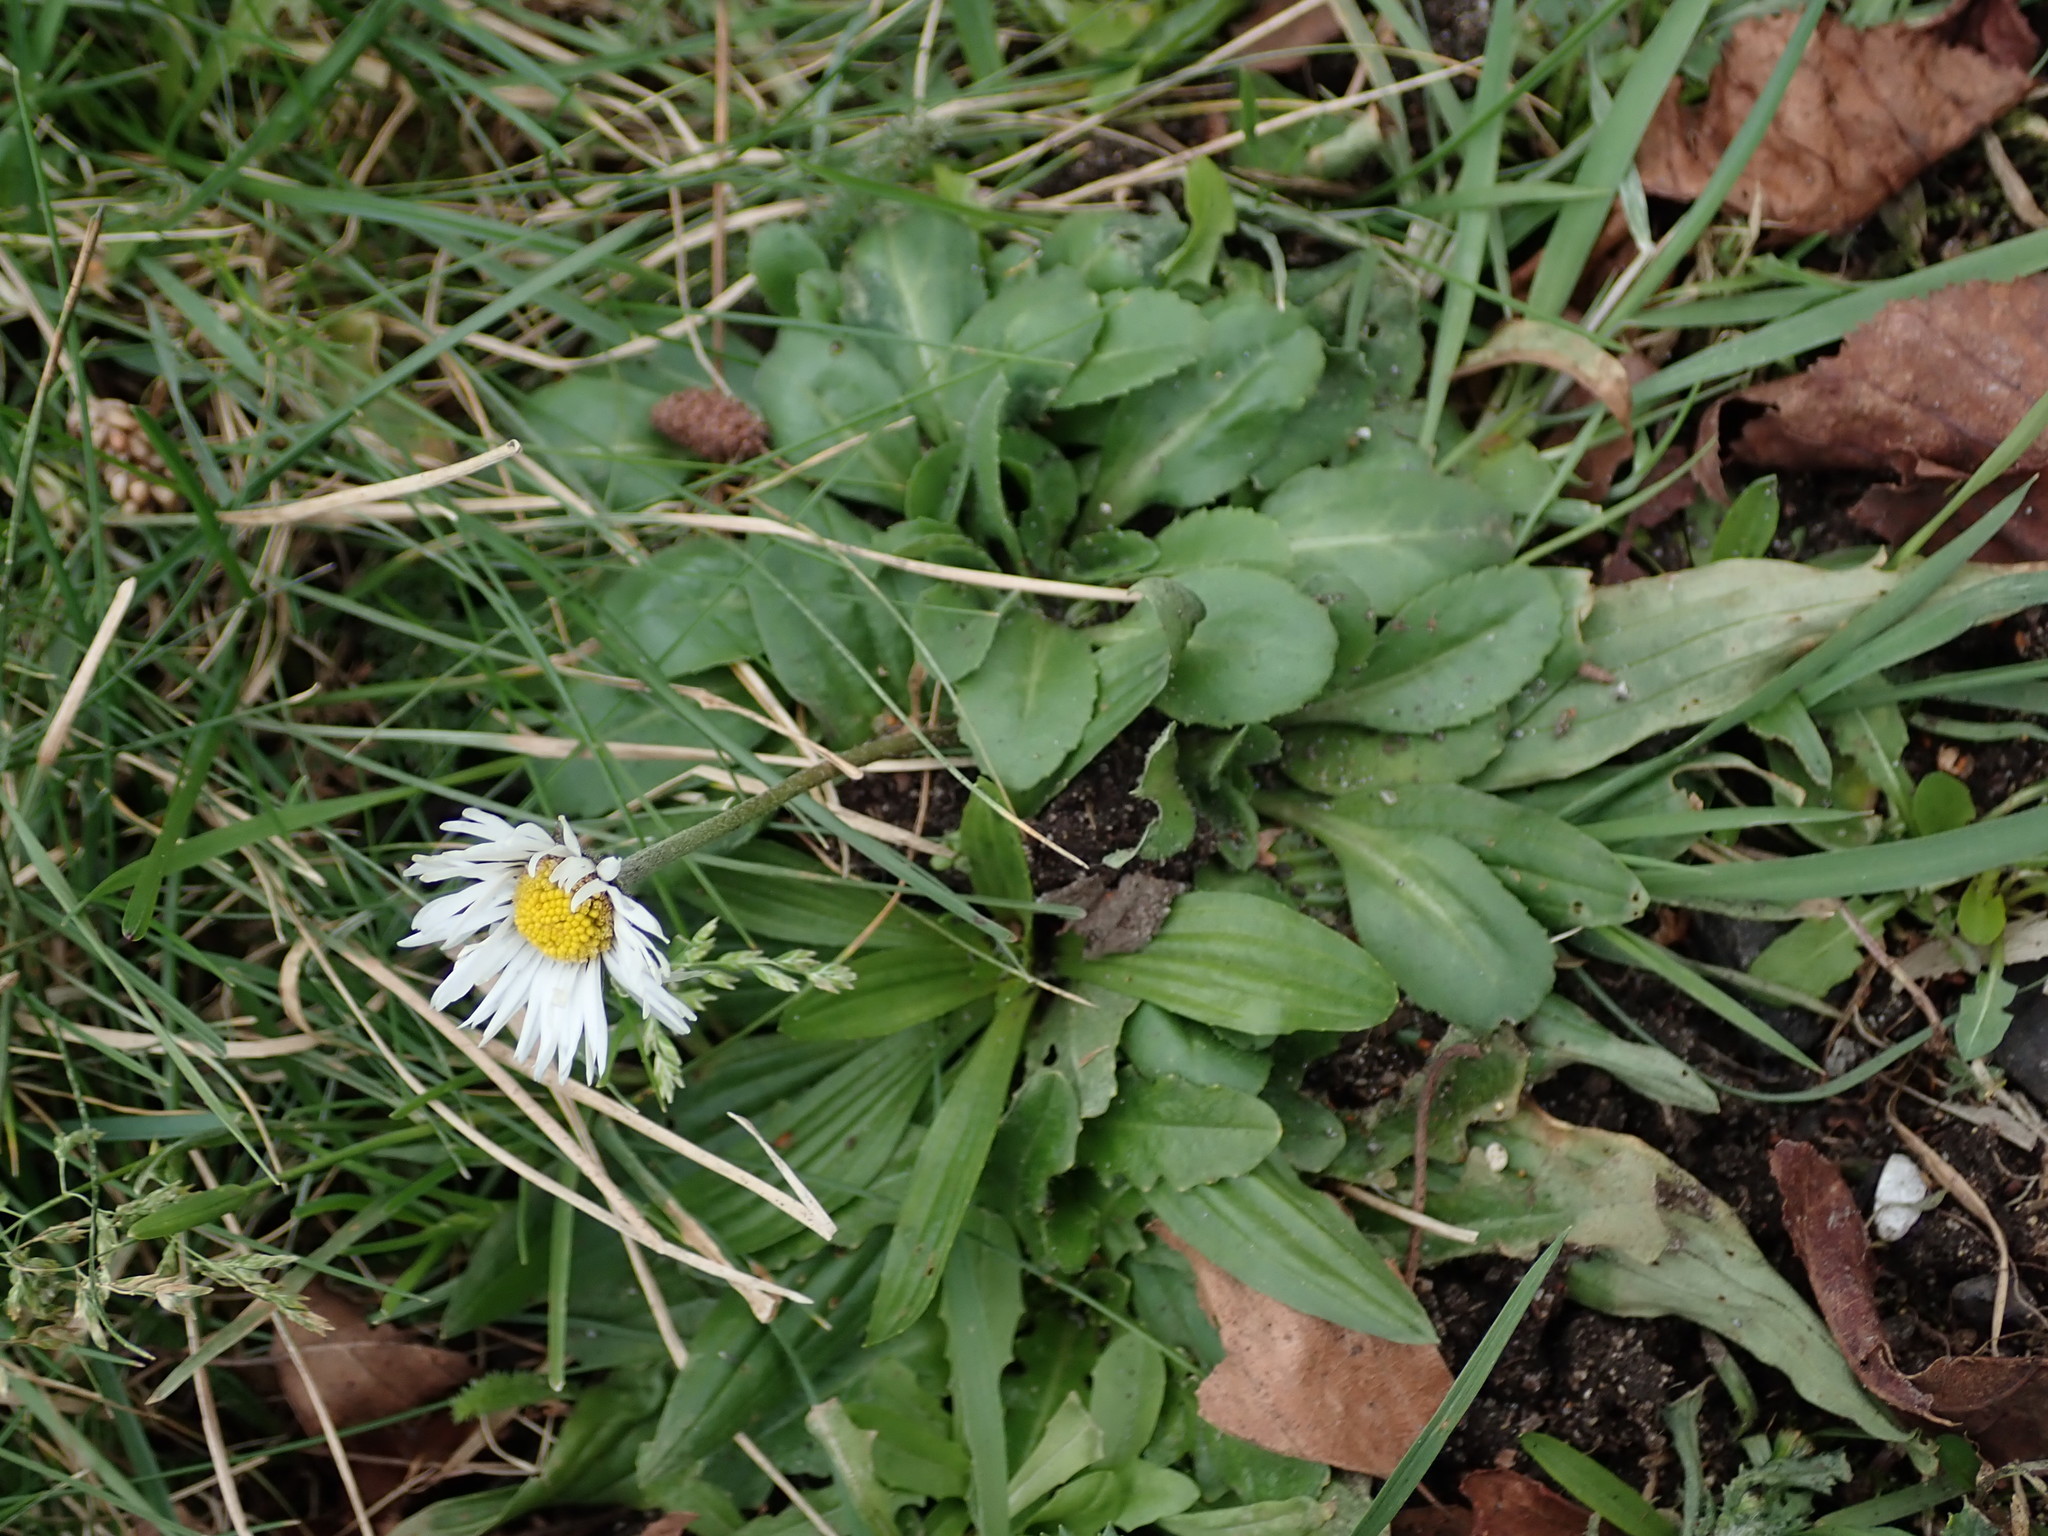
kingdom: Plantae
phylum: Tracheophyta
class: Magnoliopsida
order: Asterales
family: Asteraceae
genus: Bellis
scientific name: Bellis perennis
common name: Lawndaisy
